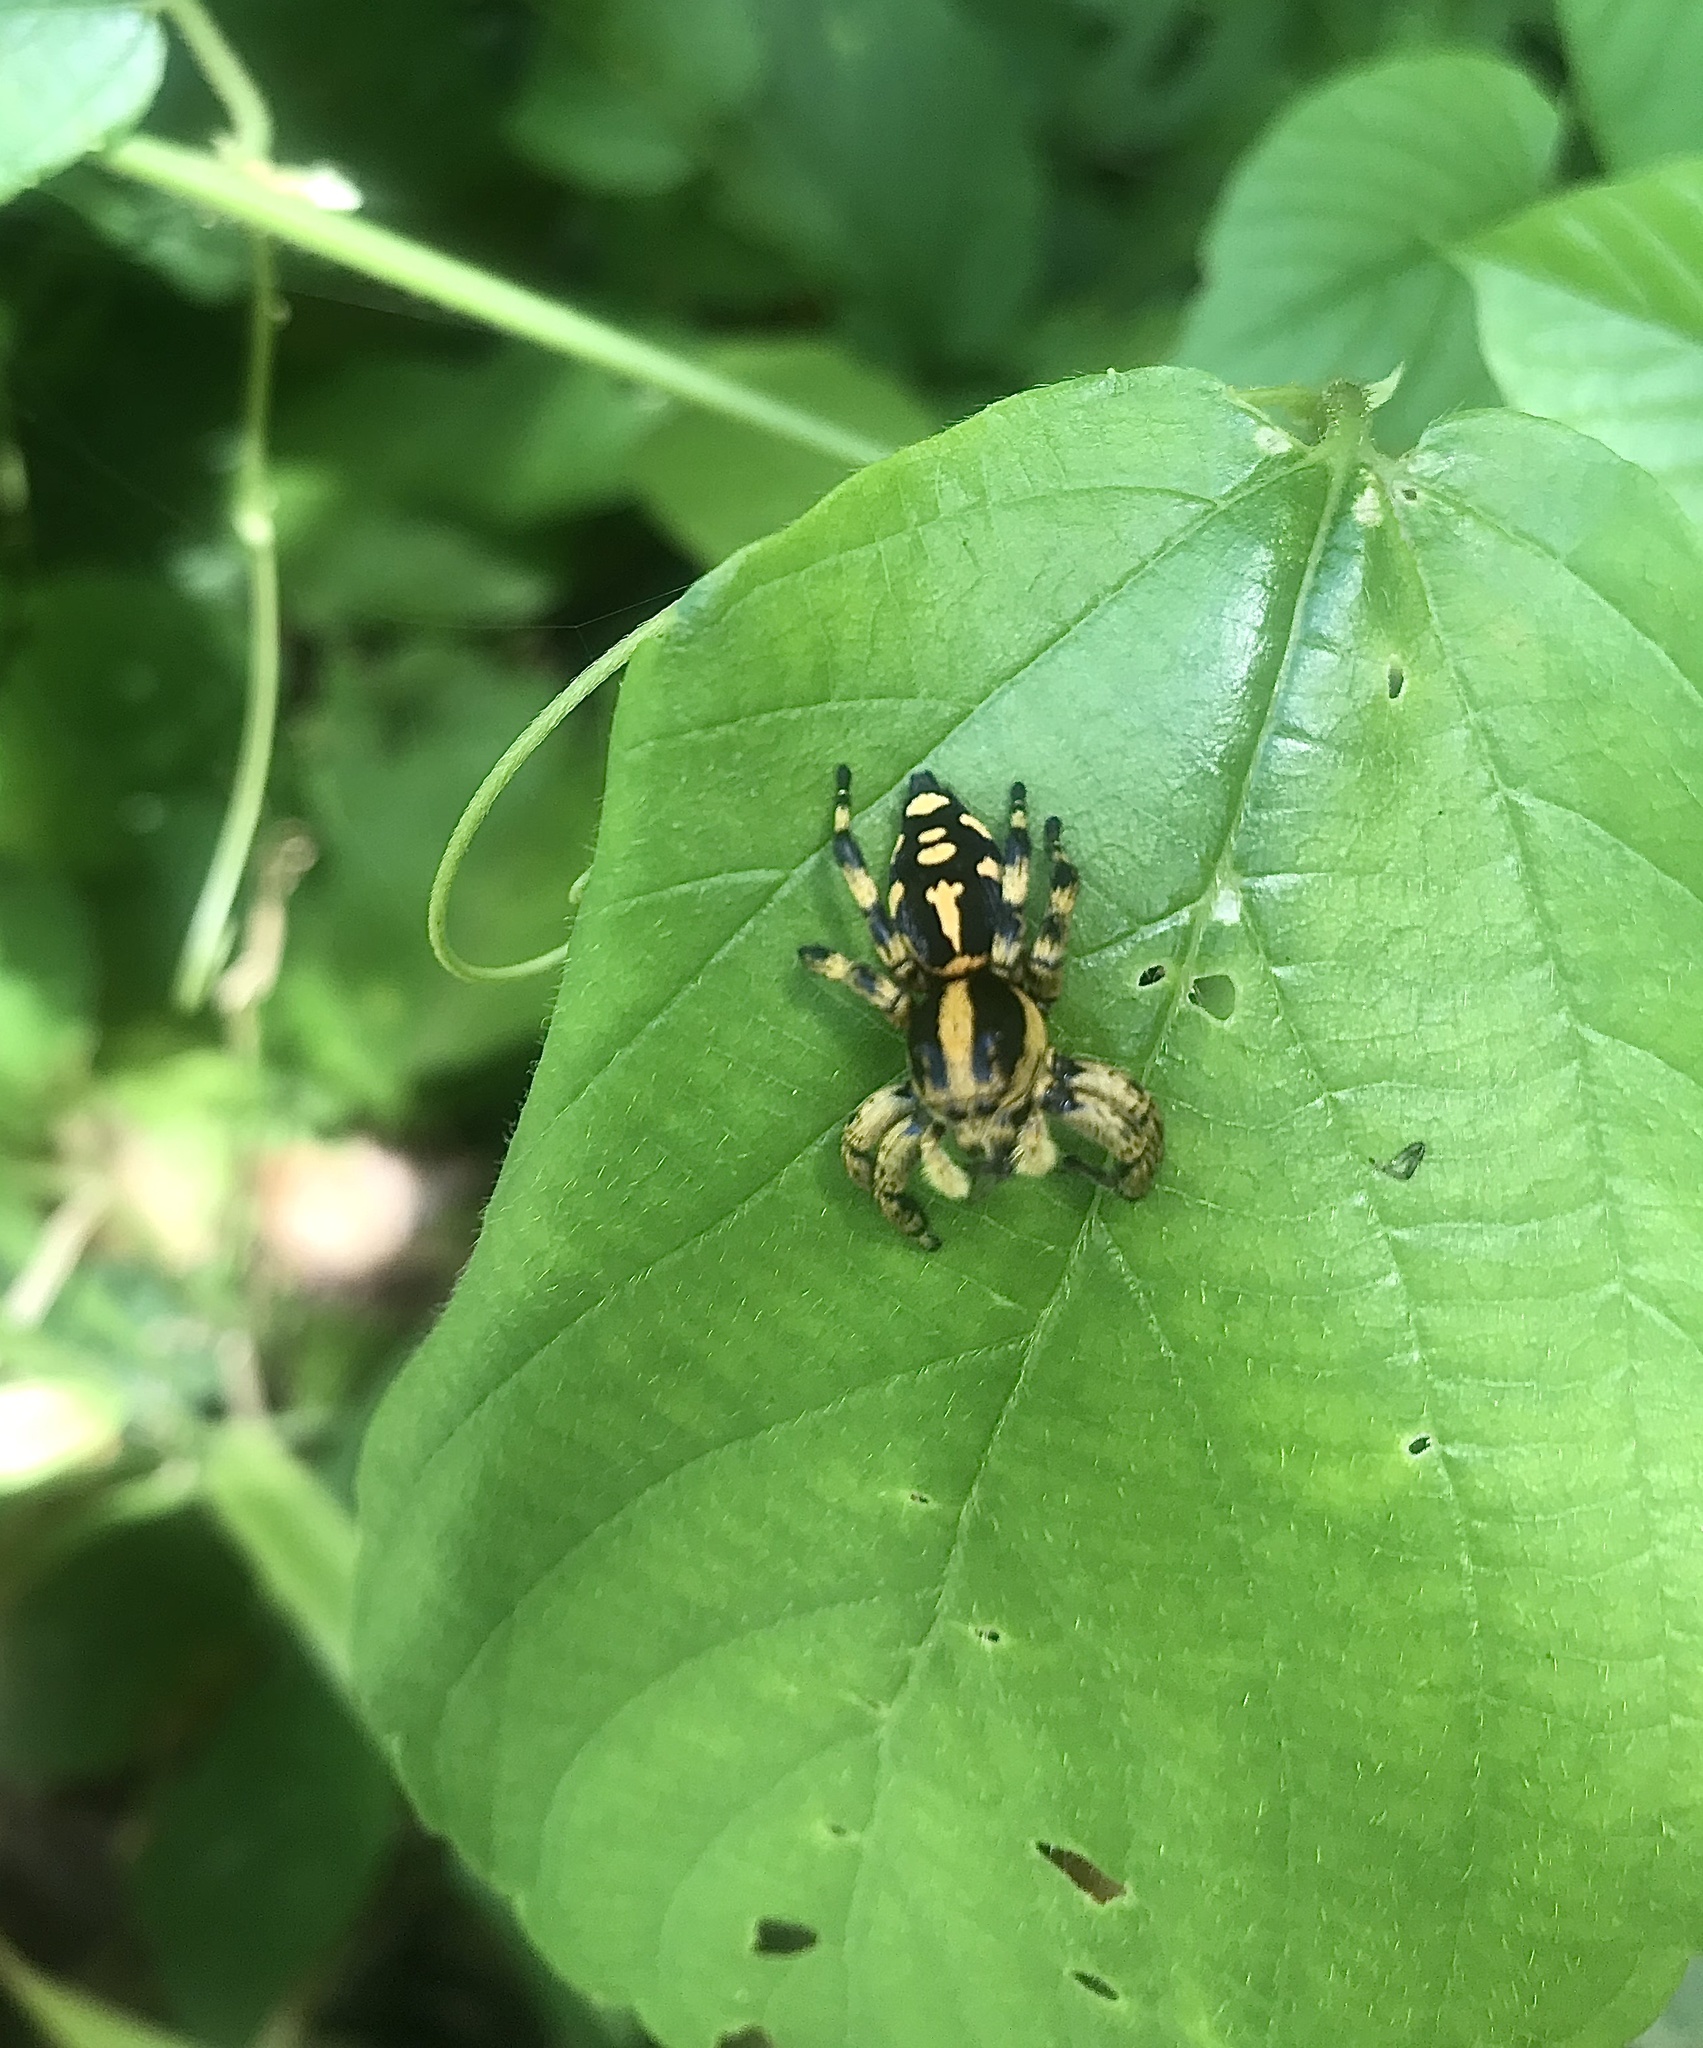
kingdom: Animalia
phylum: Arthropoda
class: Arachnida
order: Araneae
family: Salticidae
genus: Phiale
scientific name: Phiale guttata
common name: Jumping spiders
